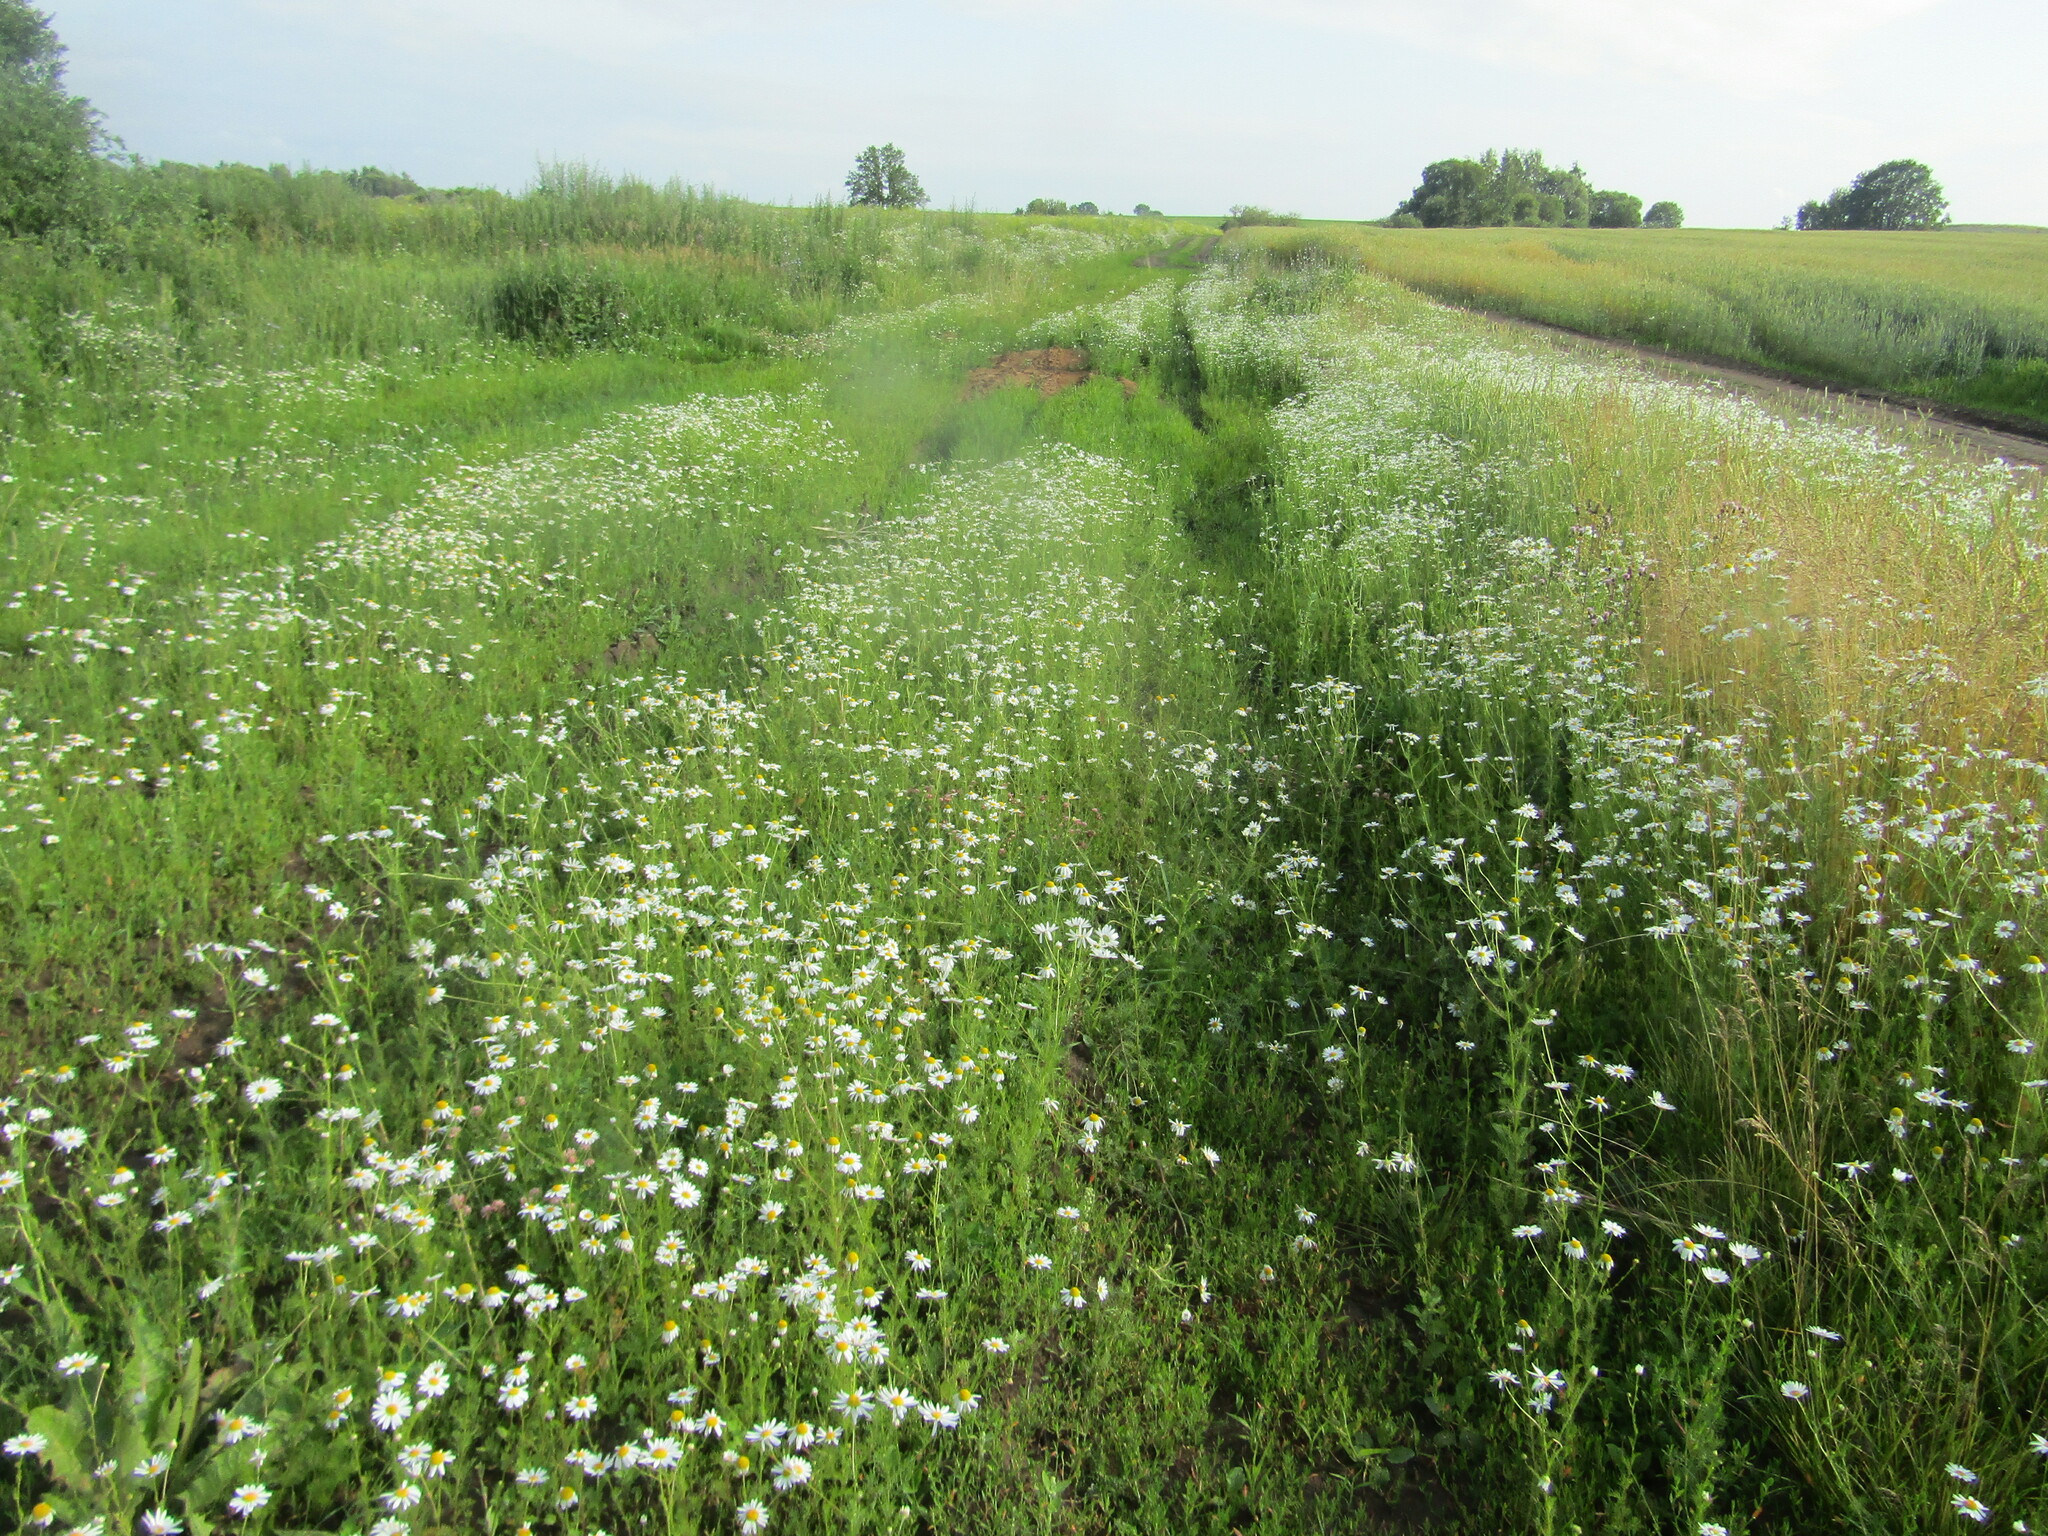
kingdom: Plantae
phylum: Tracheophyta
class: Magnoliopsida
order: Asterales
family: Asteraceae
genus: Tripleurospermum
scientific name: Tripleurospermum inodorum
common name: Scentless mayweed
